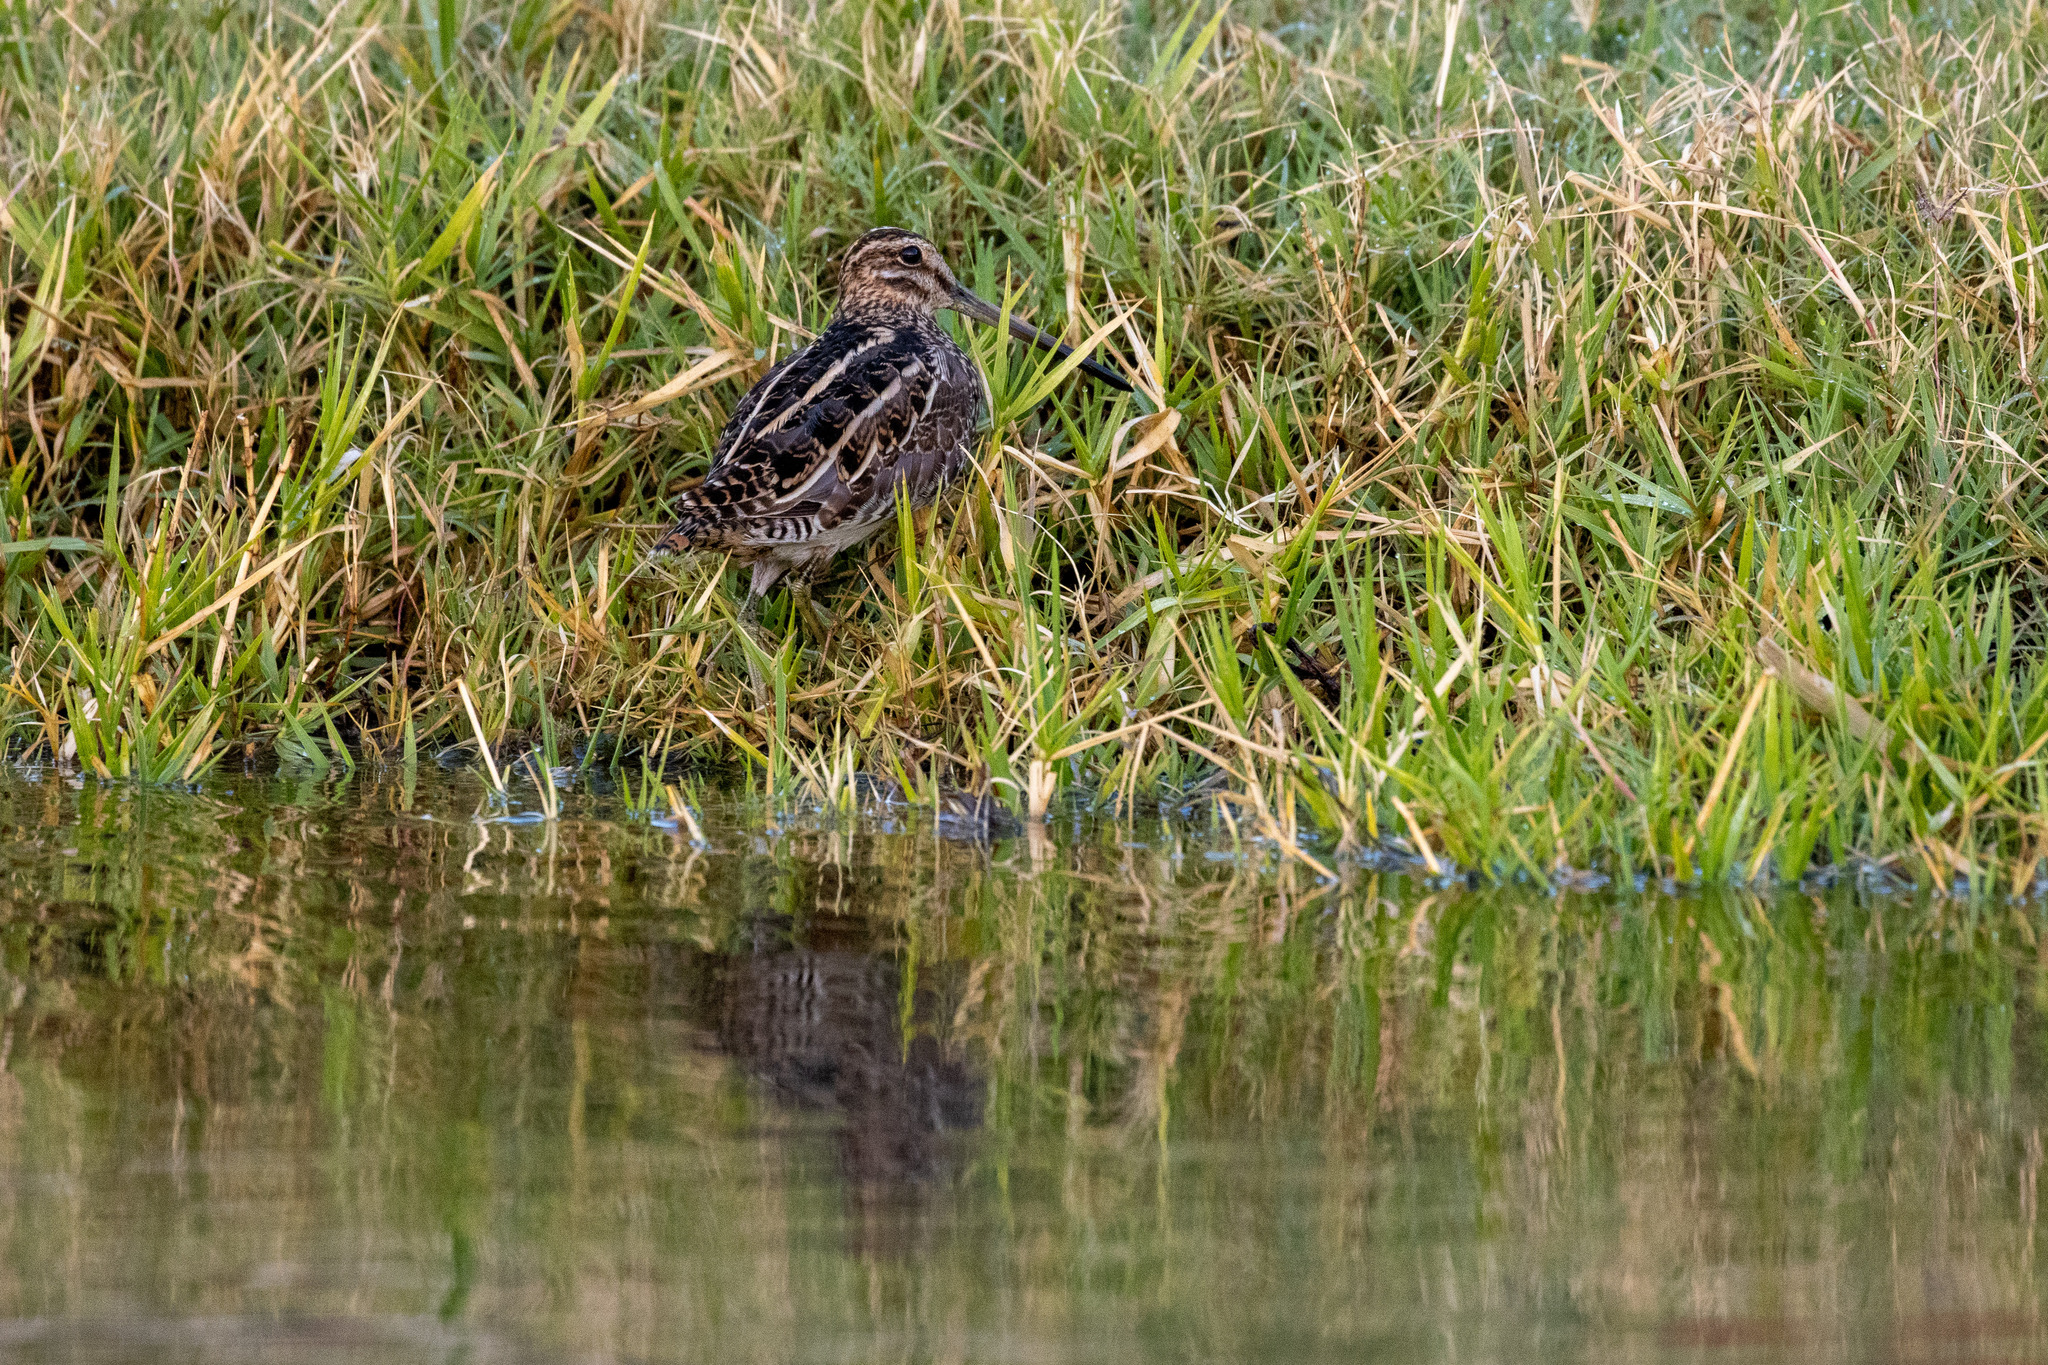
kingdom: Animalia
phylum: Chordata
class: Aves
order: Charadriiformes
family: Scolopacidae
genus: Gallinago
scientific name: Gallinago gallinago
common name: Common snipe
